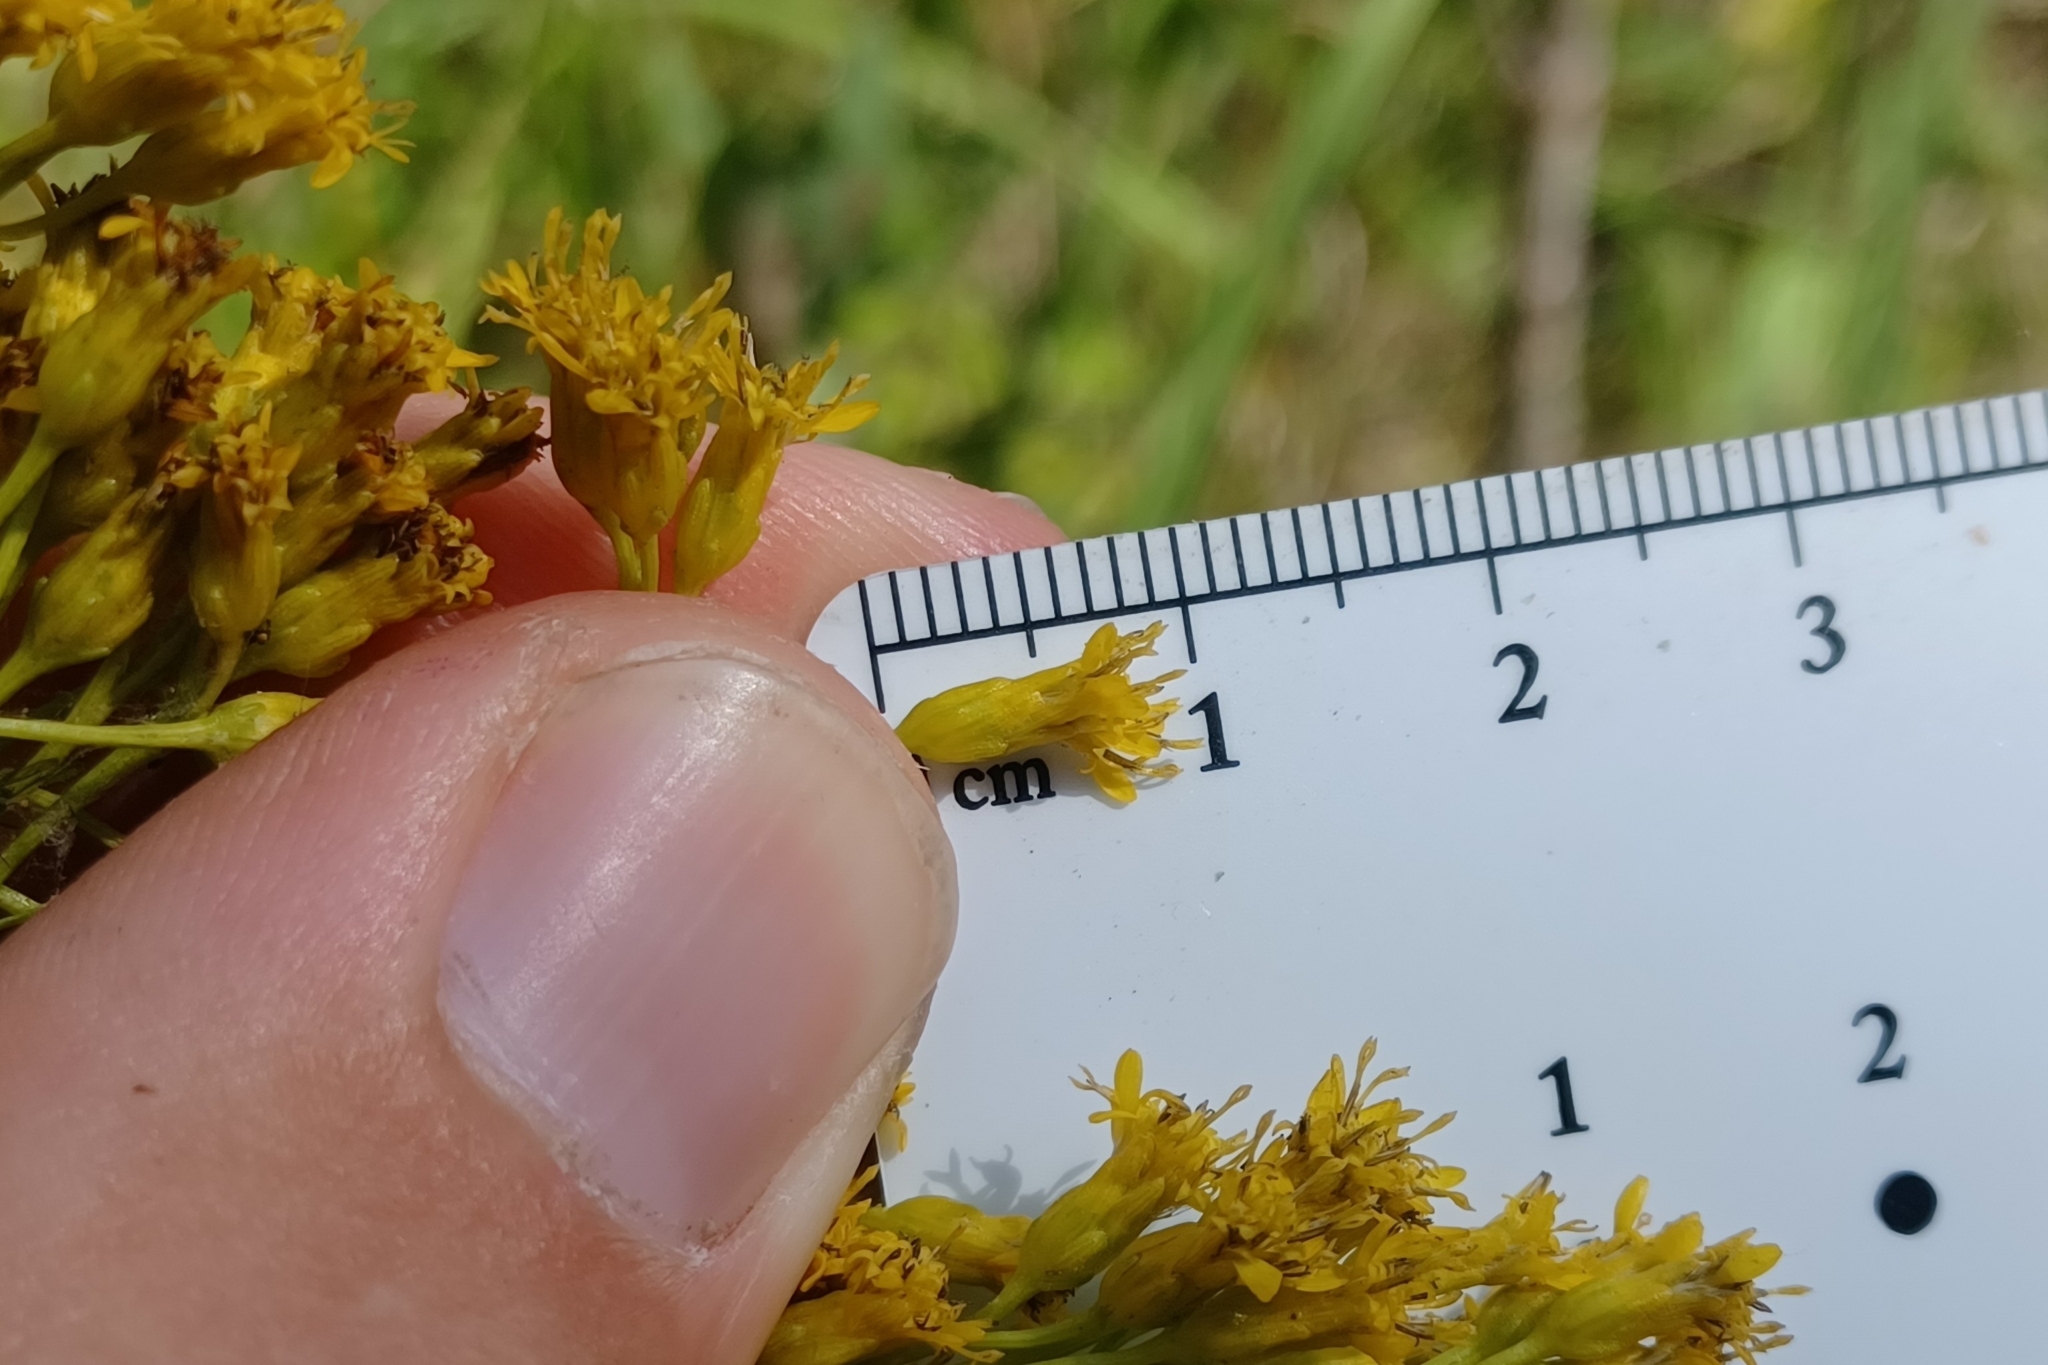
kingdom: Plantae
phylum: Tracheophyta
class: Magnoliopsida
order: Asterales
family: Asteraceae
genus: Solidago
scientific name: Solidago ohioensis
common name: Ohio goldenrod
